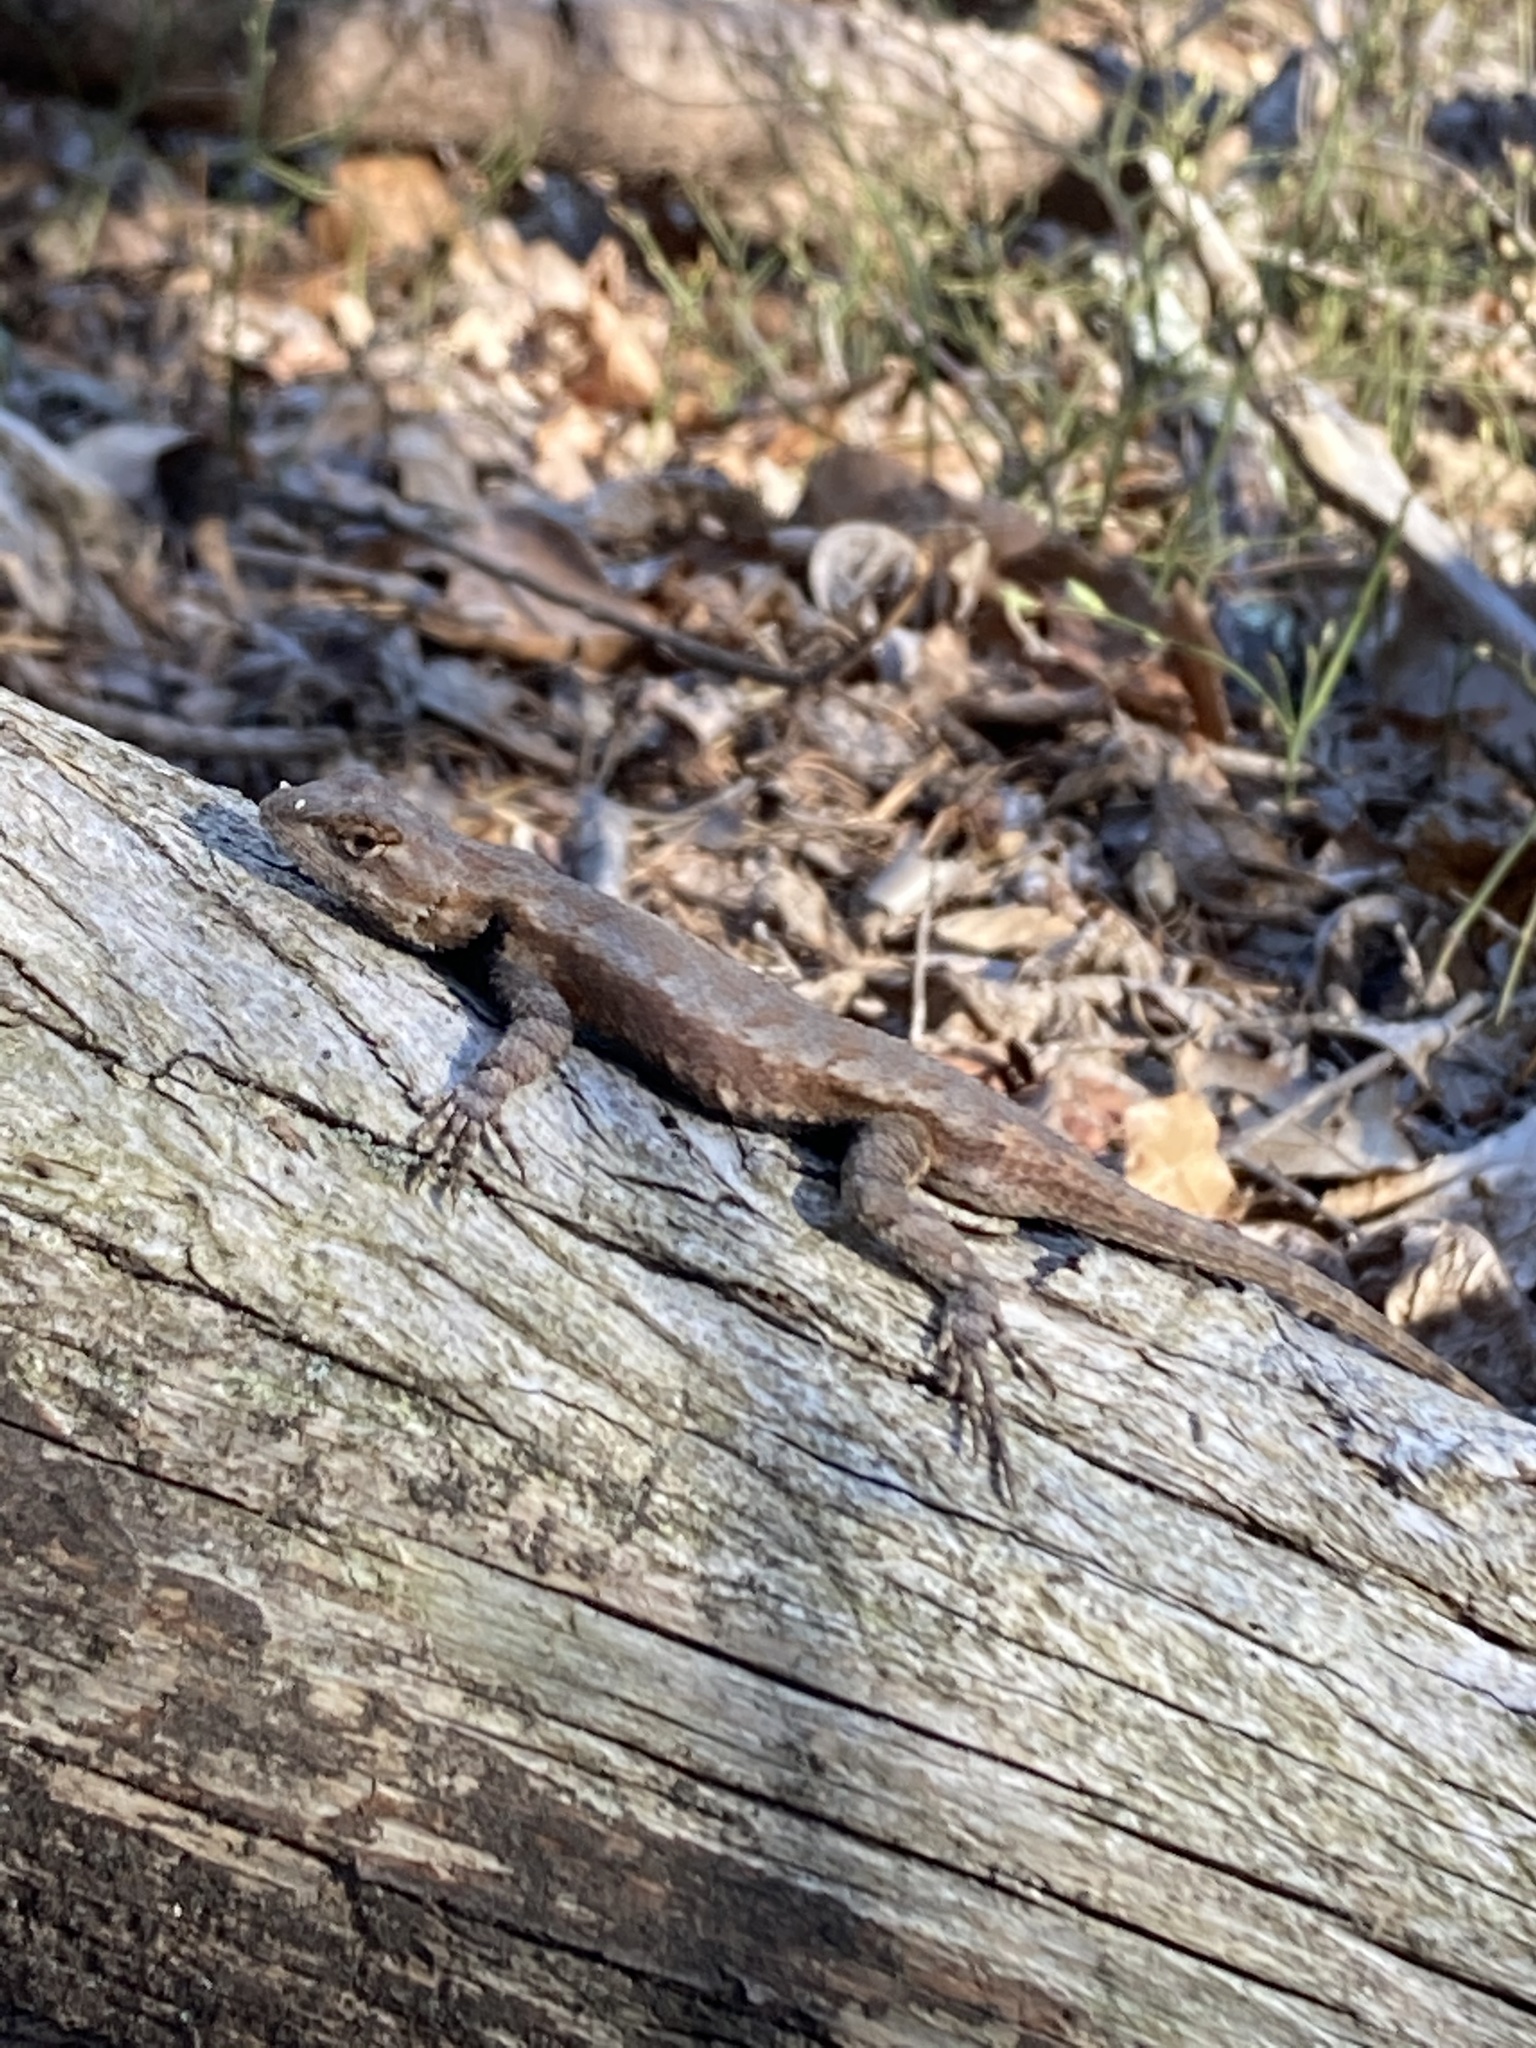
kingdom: Animalia
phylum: Chordata
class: Squamata
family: Phrynosomatidae
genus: Sceloporus
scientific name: Sceloporus undulatus
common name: Eastern fence lizard
